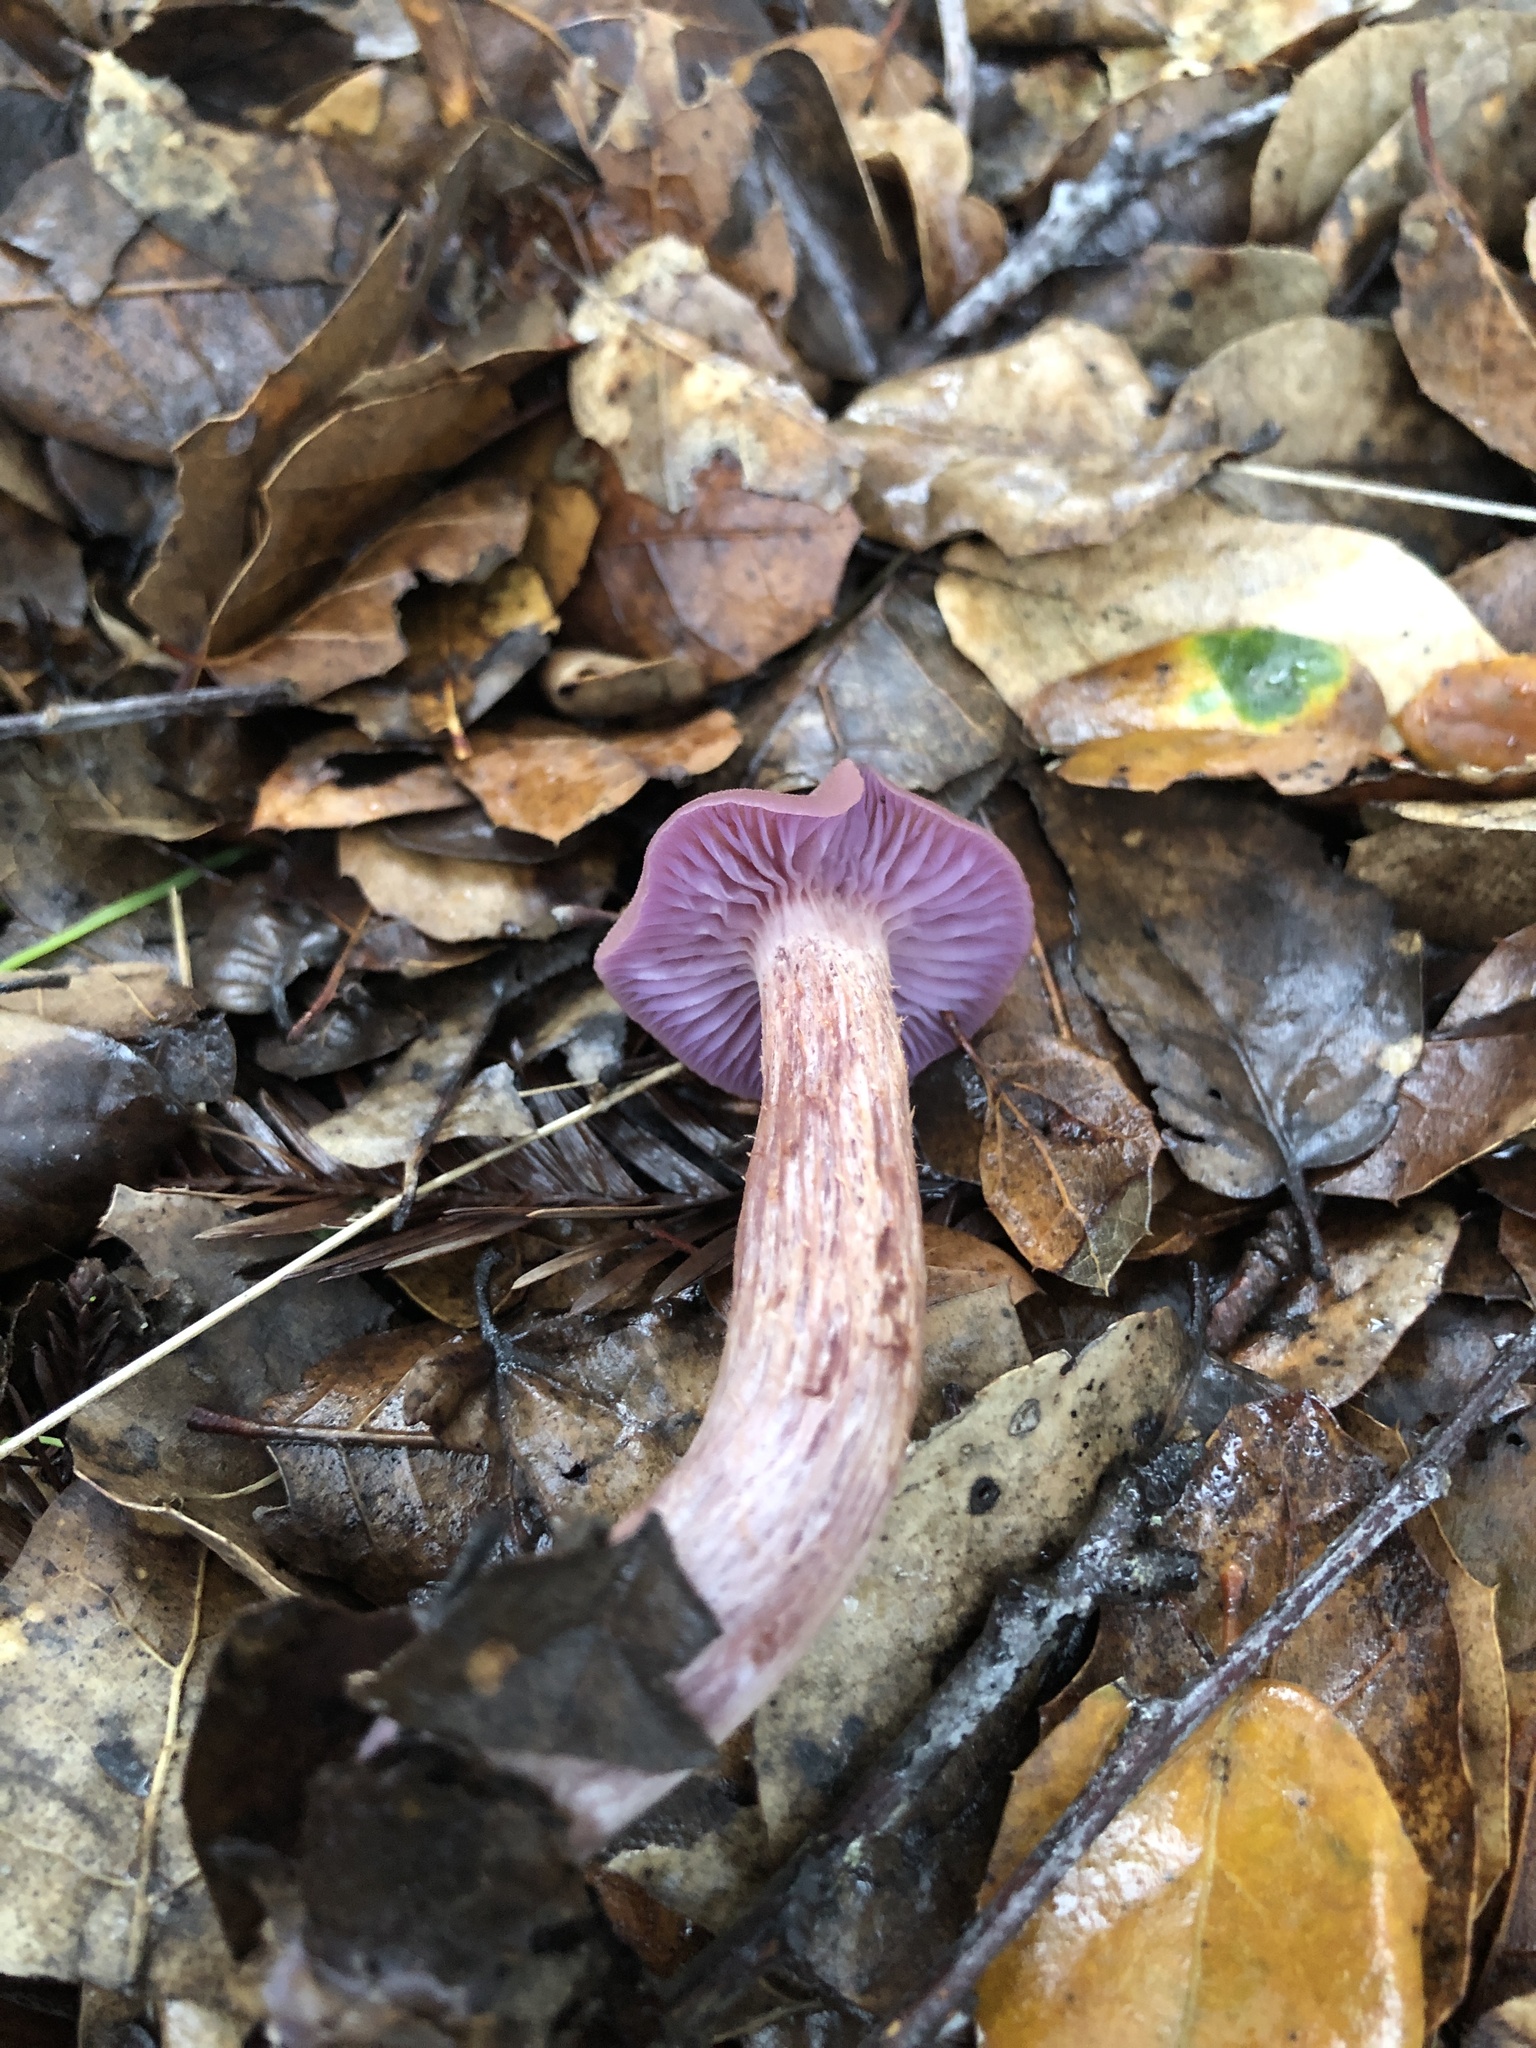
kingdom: Fungi
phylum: Basidiomycota
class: Agaricomycetes
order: Agaricales
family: Hydnangiaceae
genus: Laccaria
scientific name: Laccaria amethysteo-occidentalis
